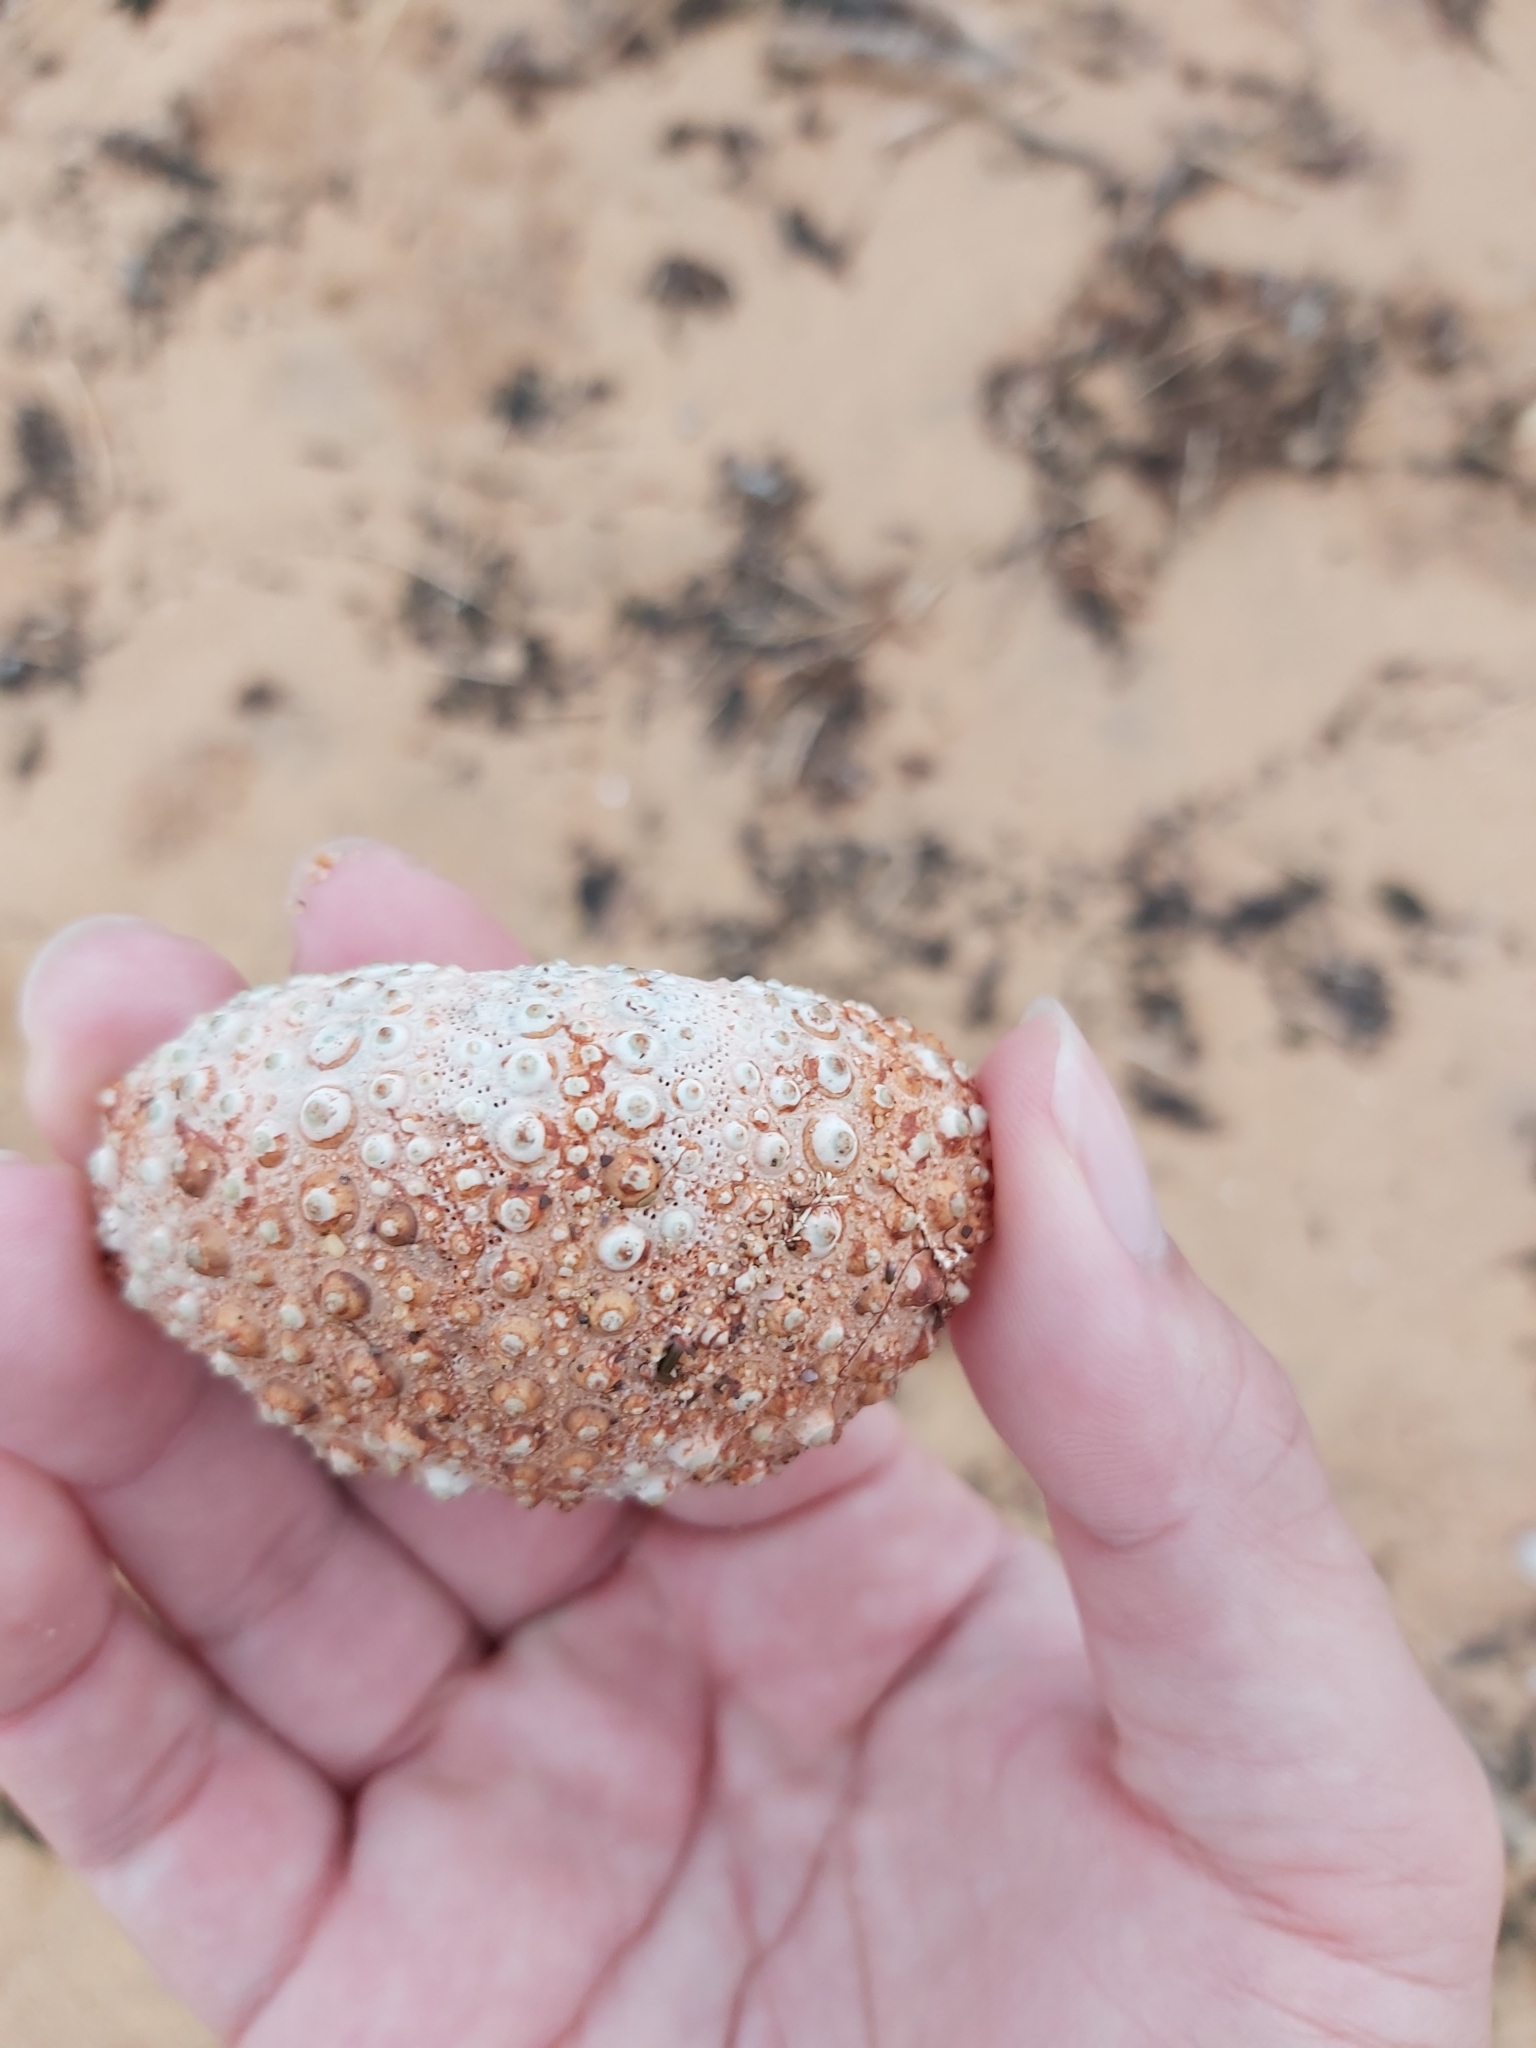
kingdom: Animalia
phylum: Echinodermata
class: Echinoidea
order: Diadematoida
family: Diadematidae
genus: Centrostephanus
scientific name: Centrostephanus rodgersii
